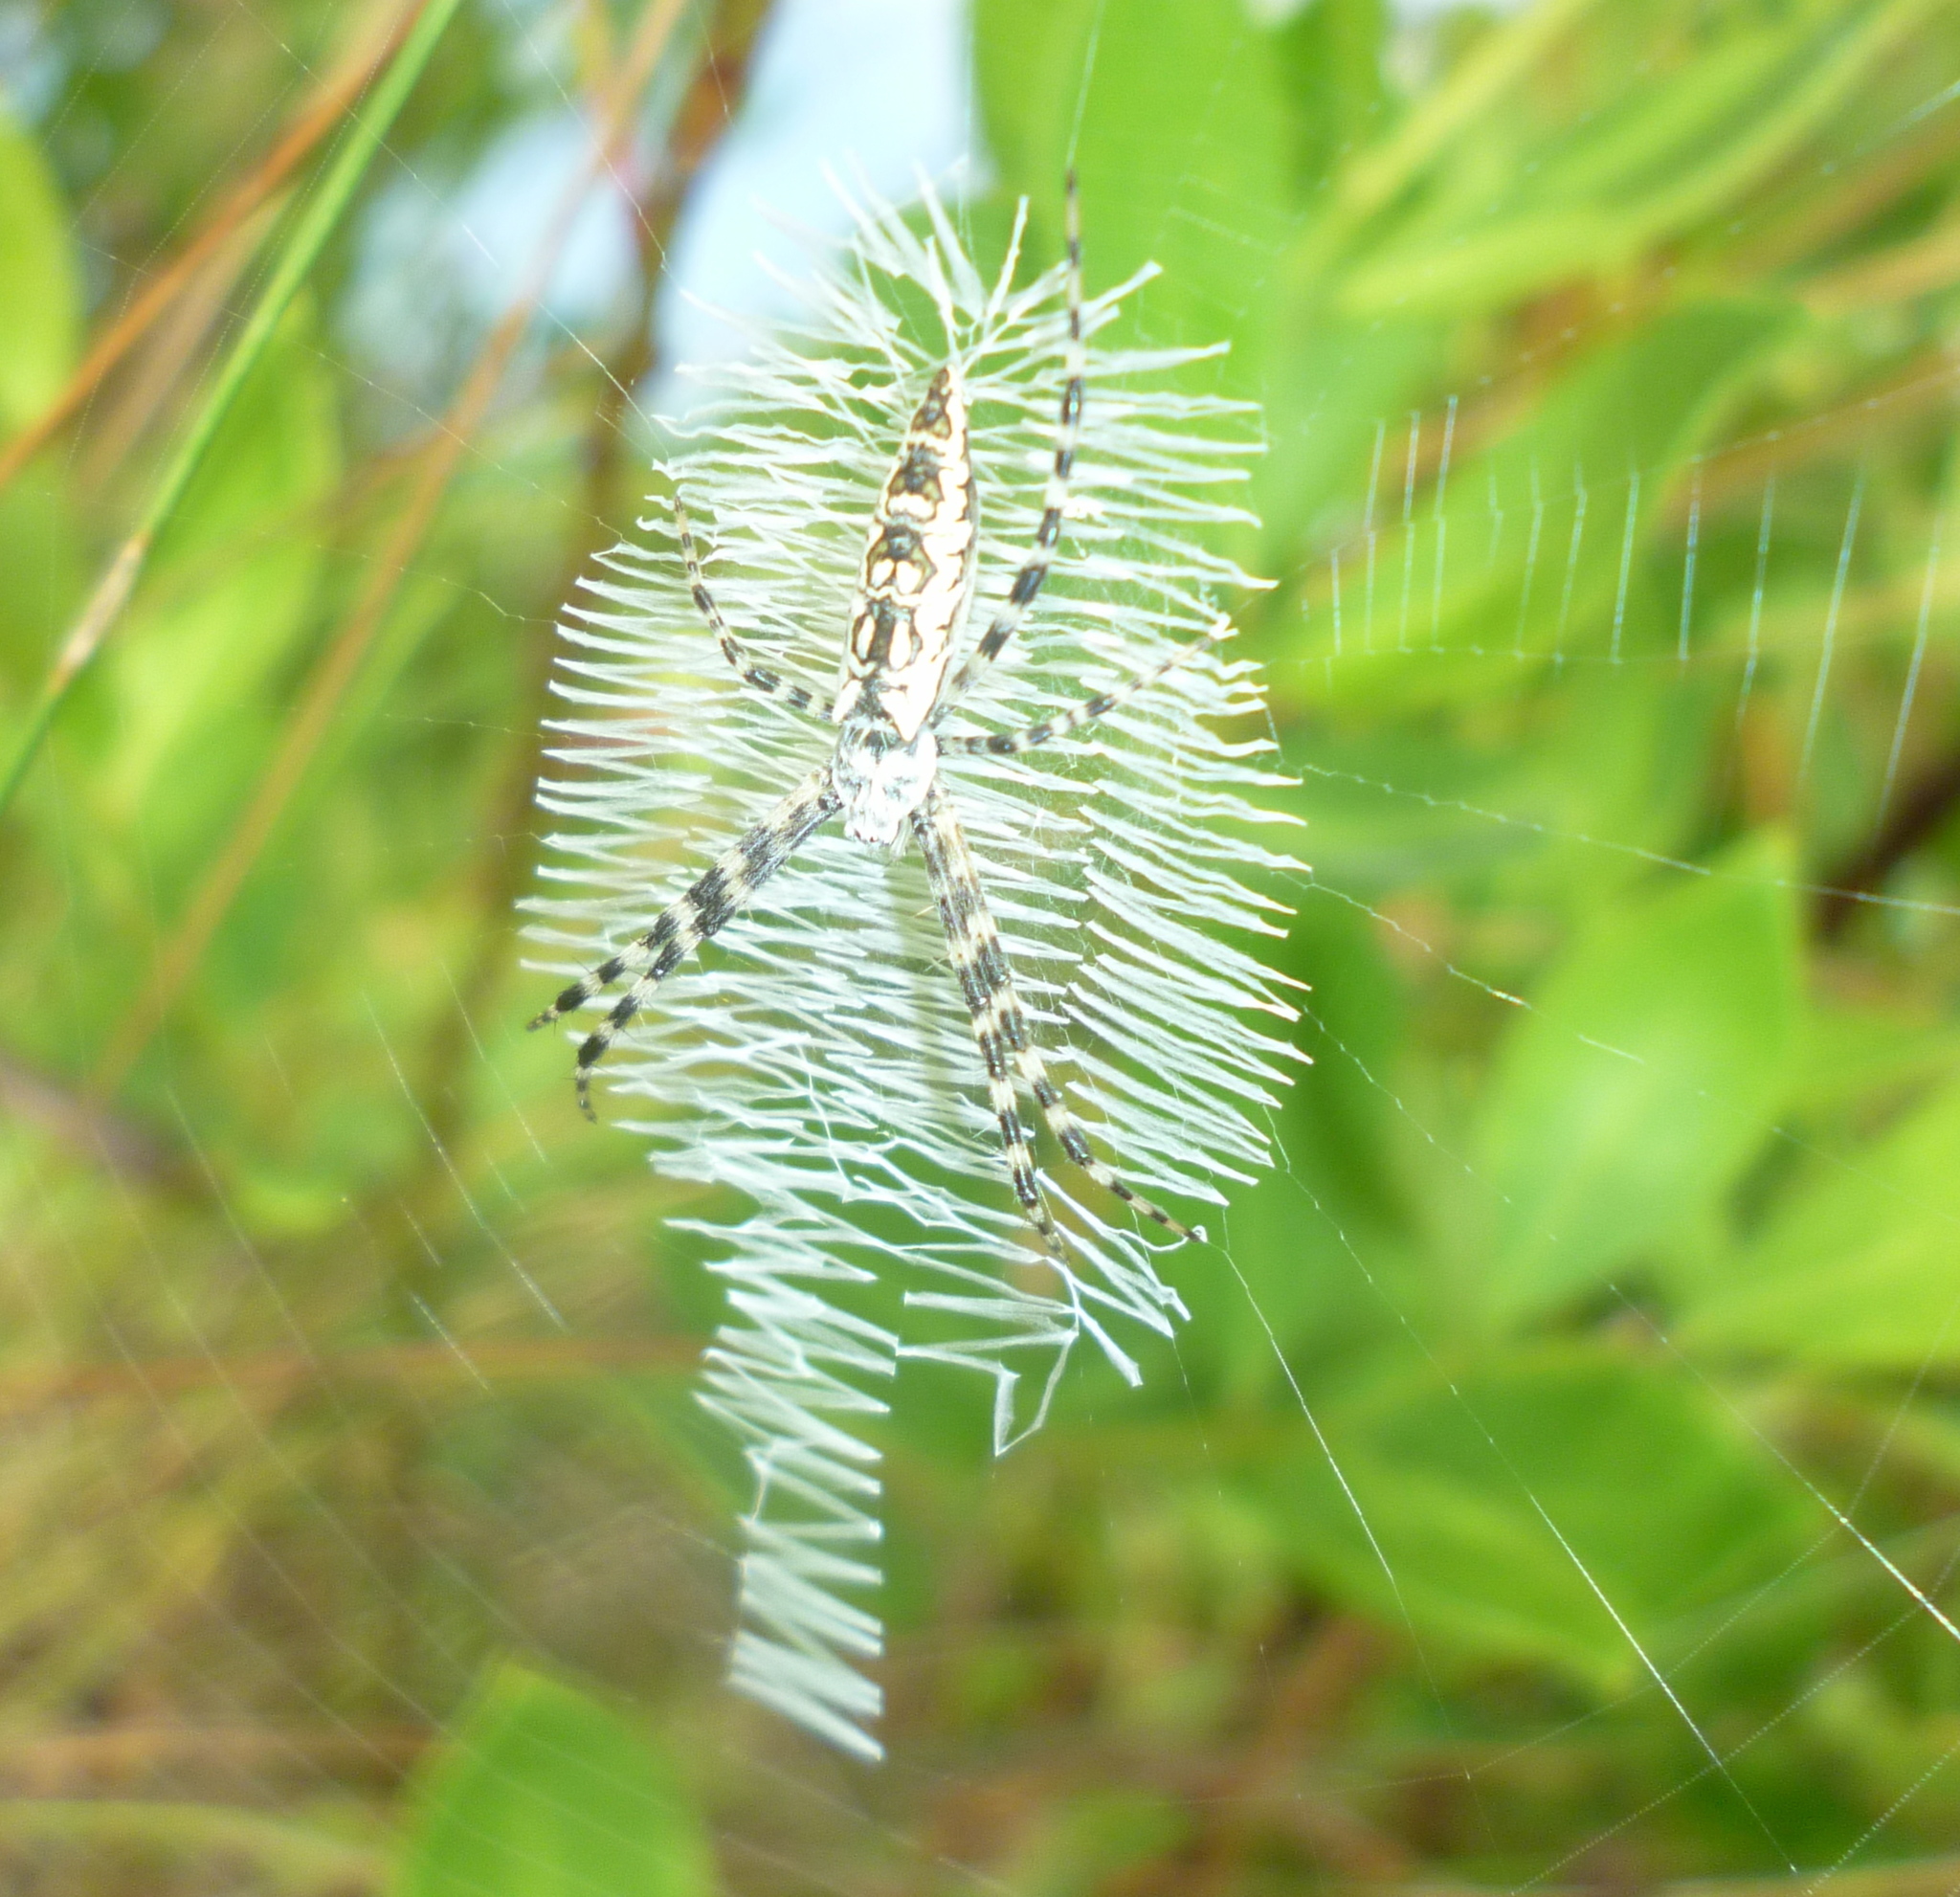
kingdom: Animalia
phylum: Arthropoda
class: Arachnida
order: Araneae
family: Araneidae
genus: Argiope
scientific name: Argiope aurantia
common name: Orb weavers
